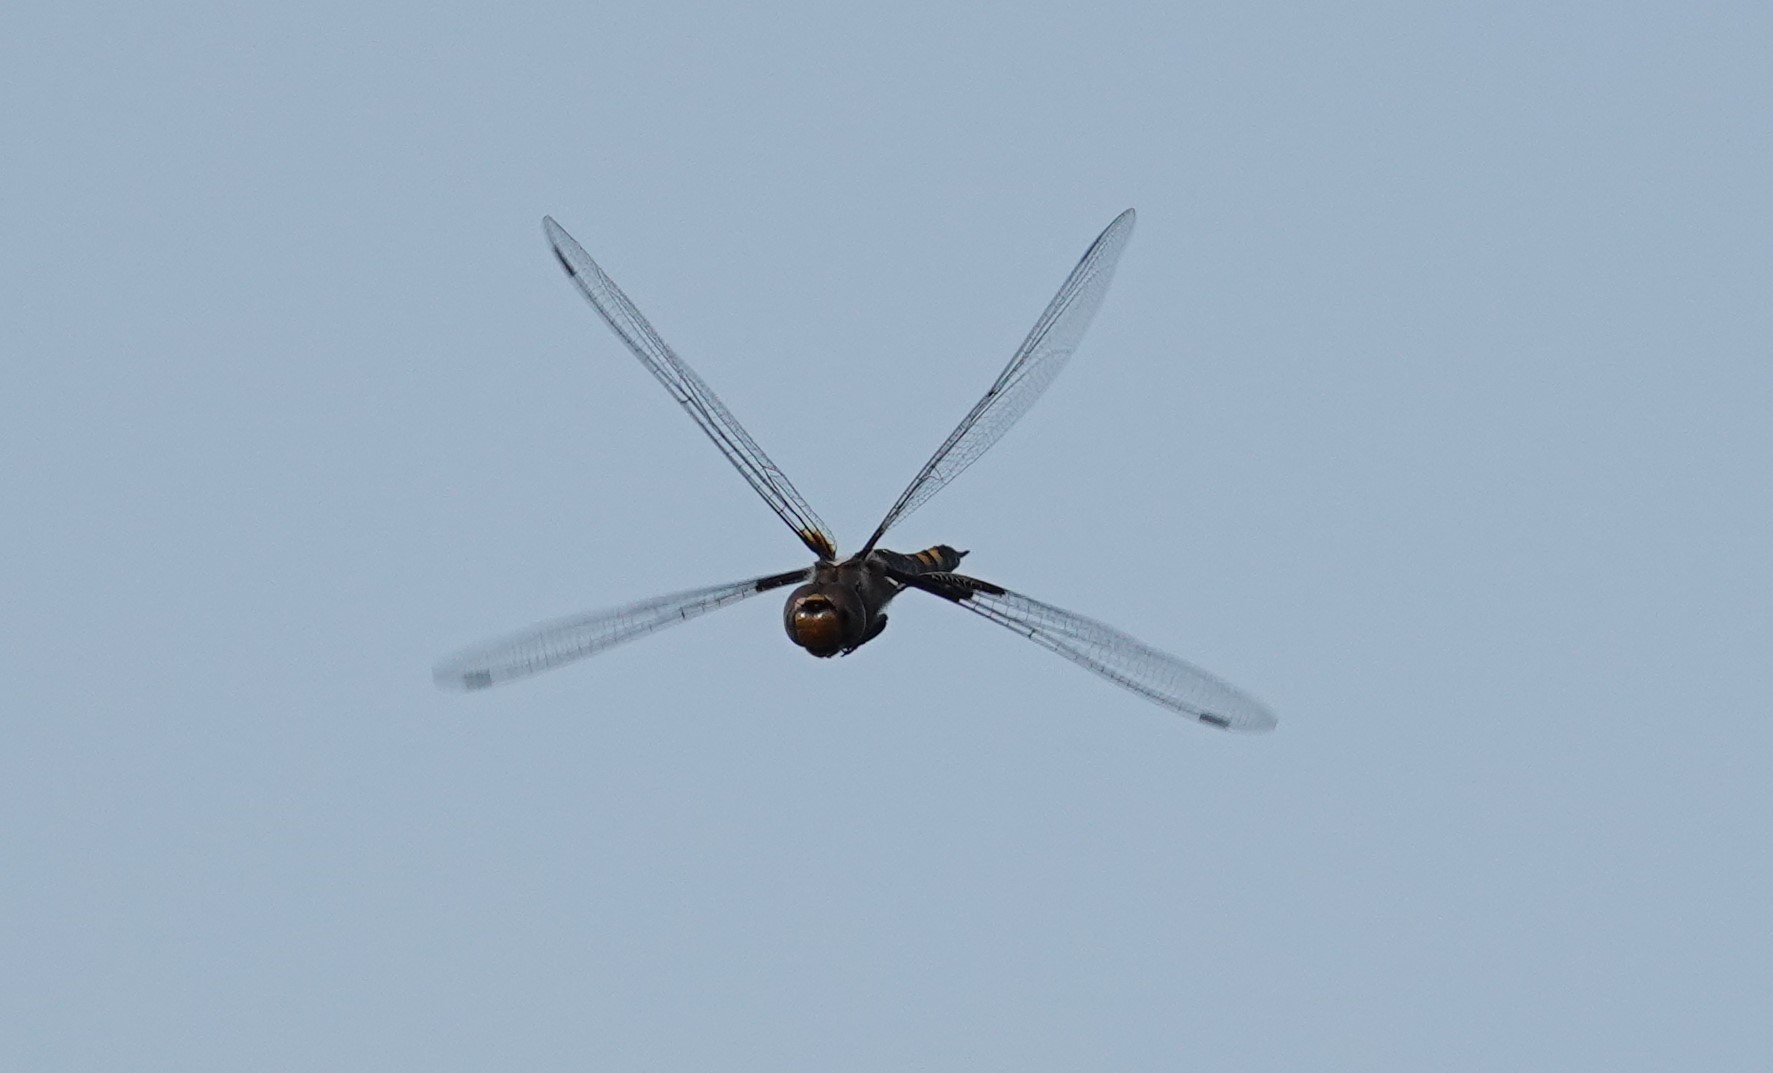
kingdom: Animalia
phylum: Arthropoda
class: Insecta
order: Odonata
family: Libellulidae
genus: Tramea
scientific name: Tramea lacerata
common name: Black saddlebags
